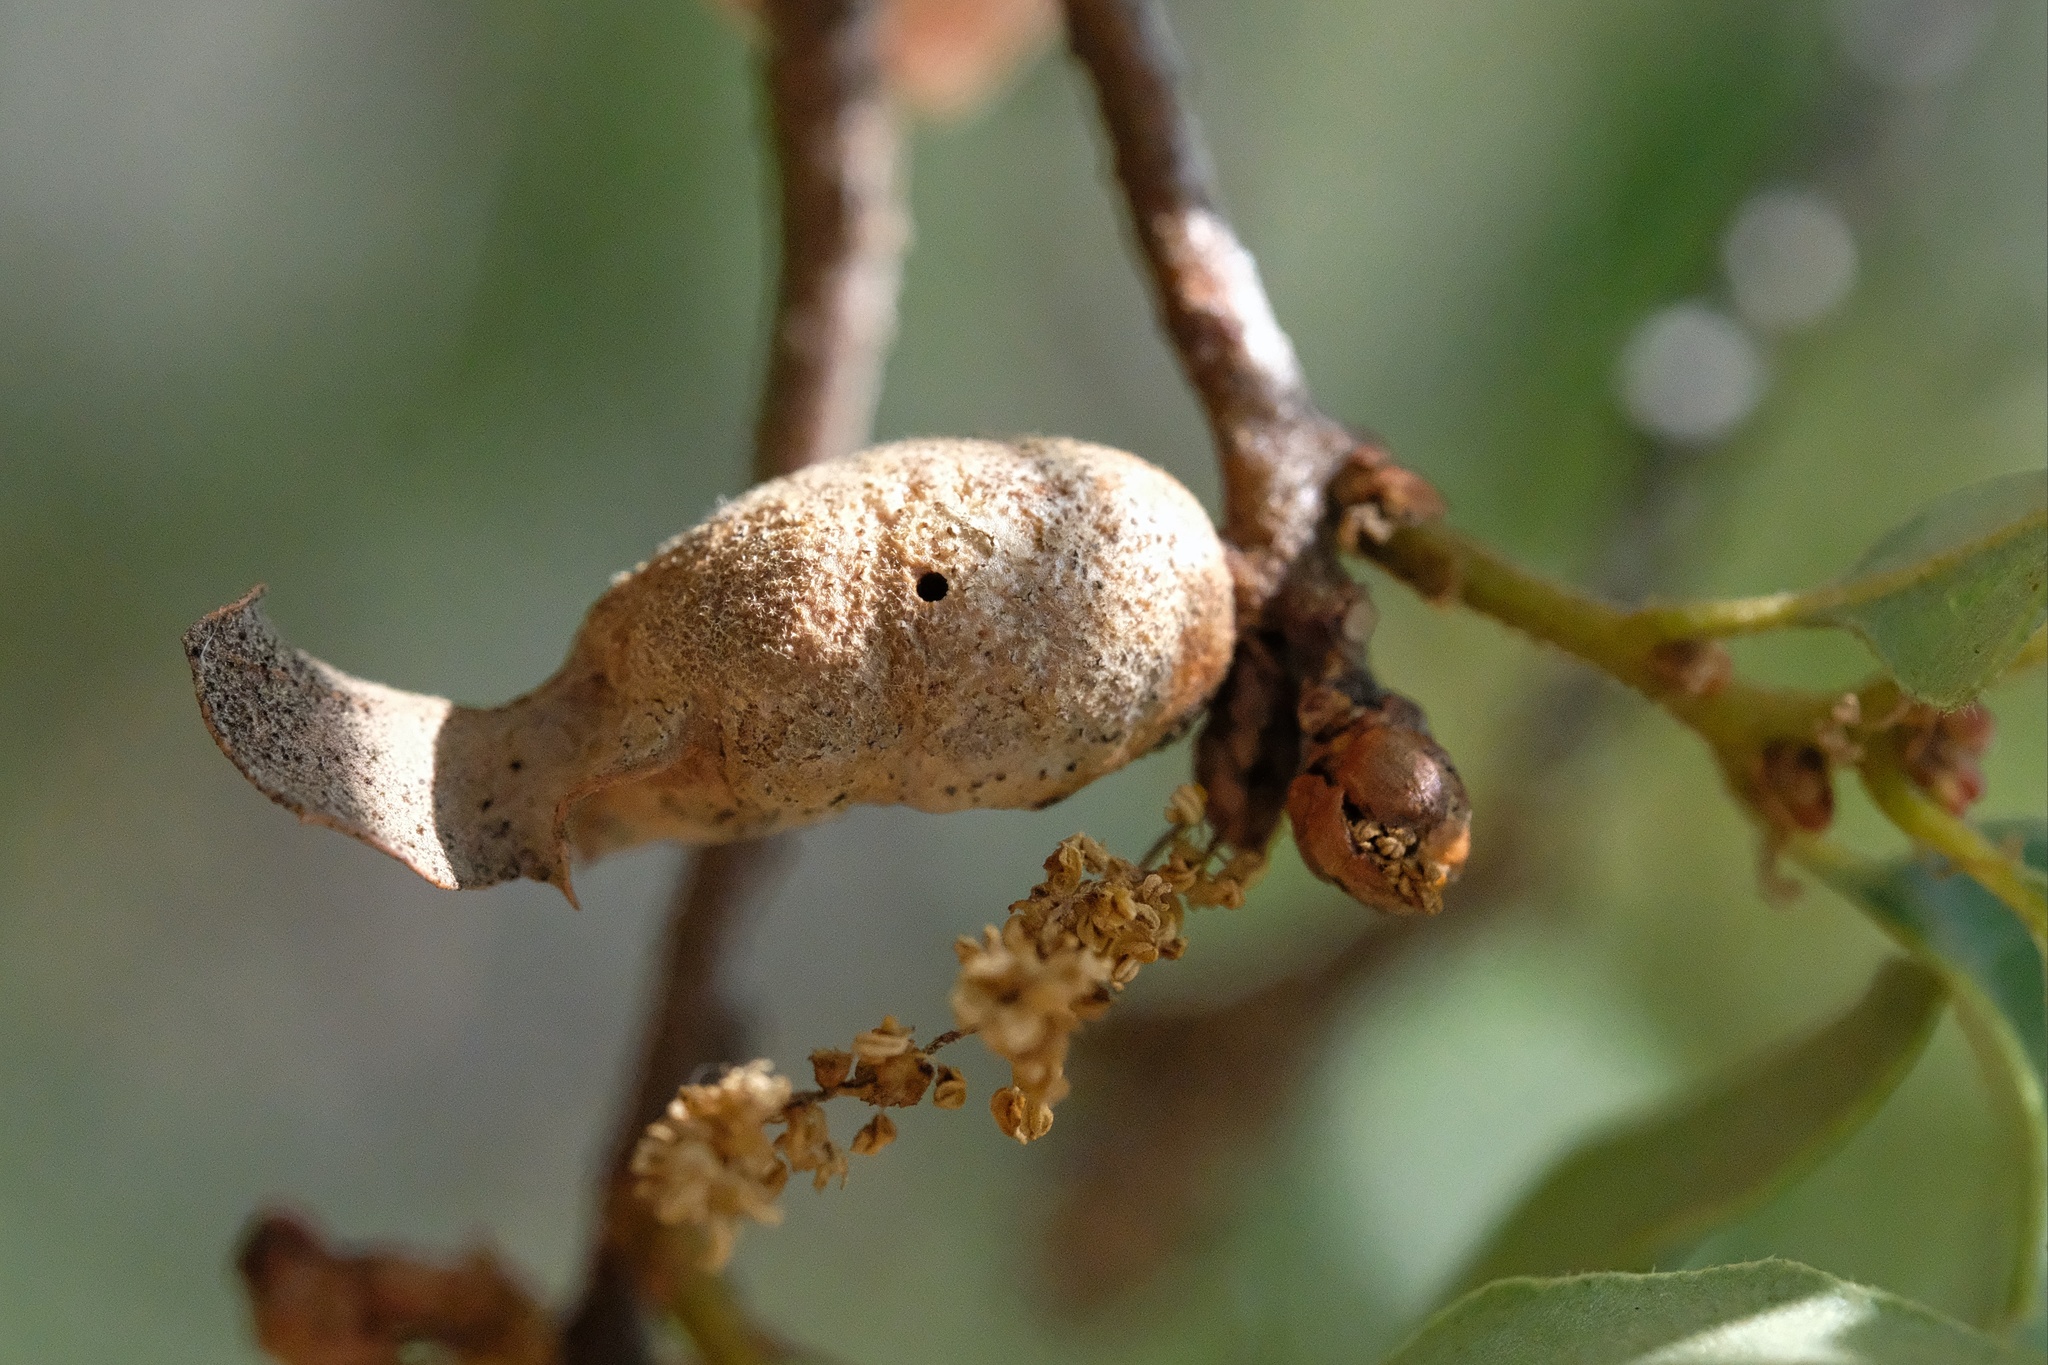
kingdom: Animalia
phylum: Arthropoda
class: Insecta
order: Hymenoptera
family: Cynipidae
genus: Neuroterus
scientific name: Neuroterus
